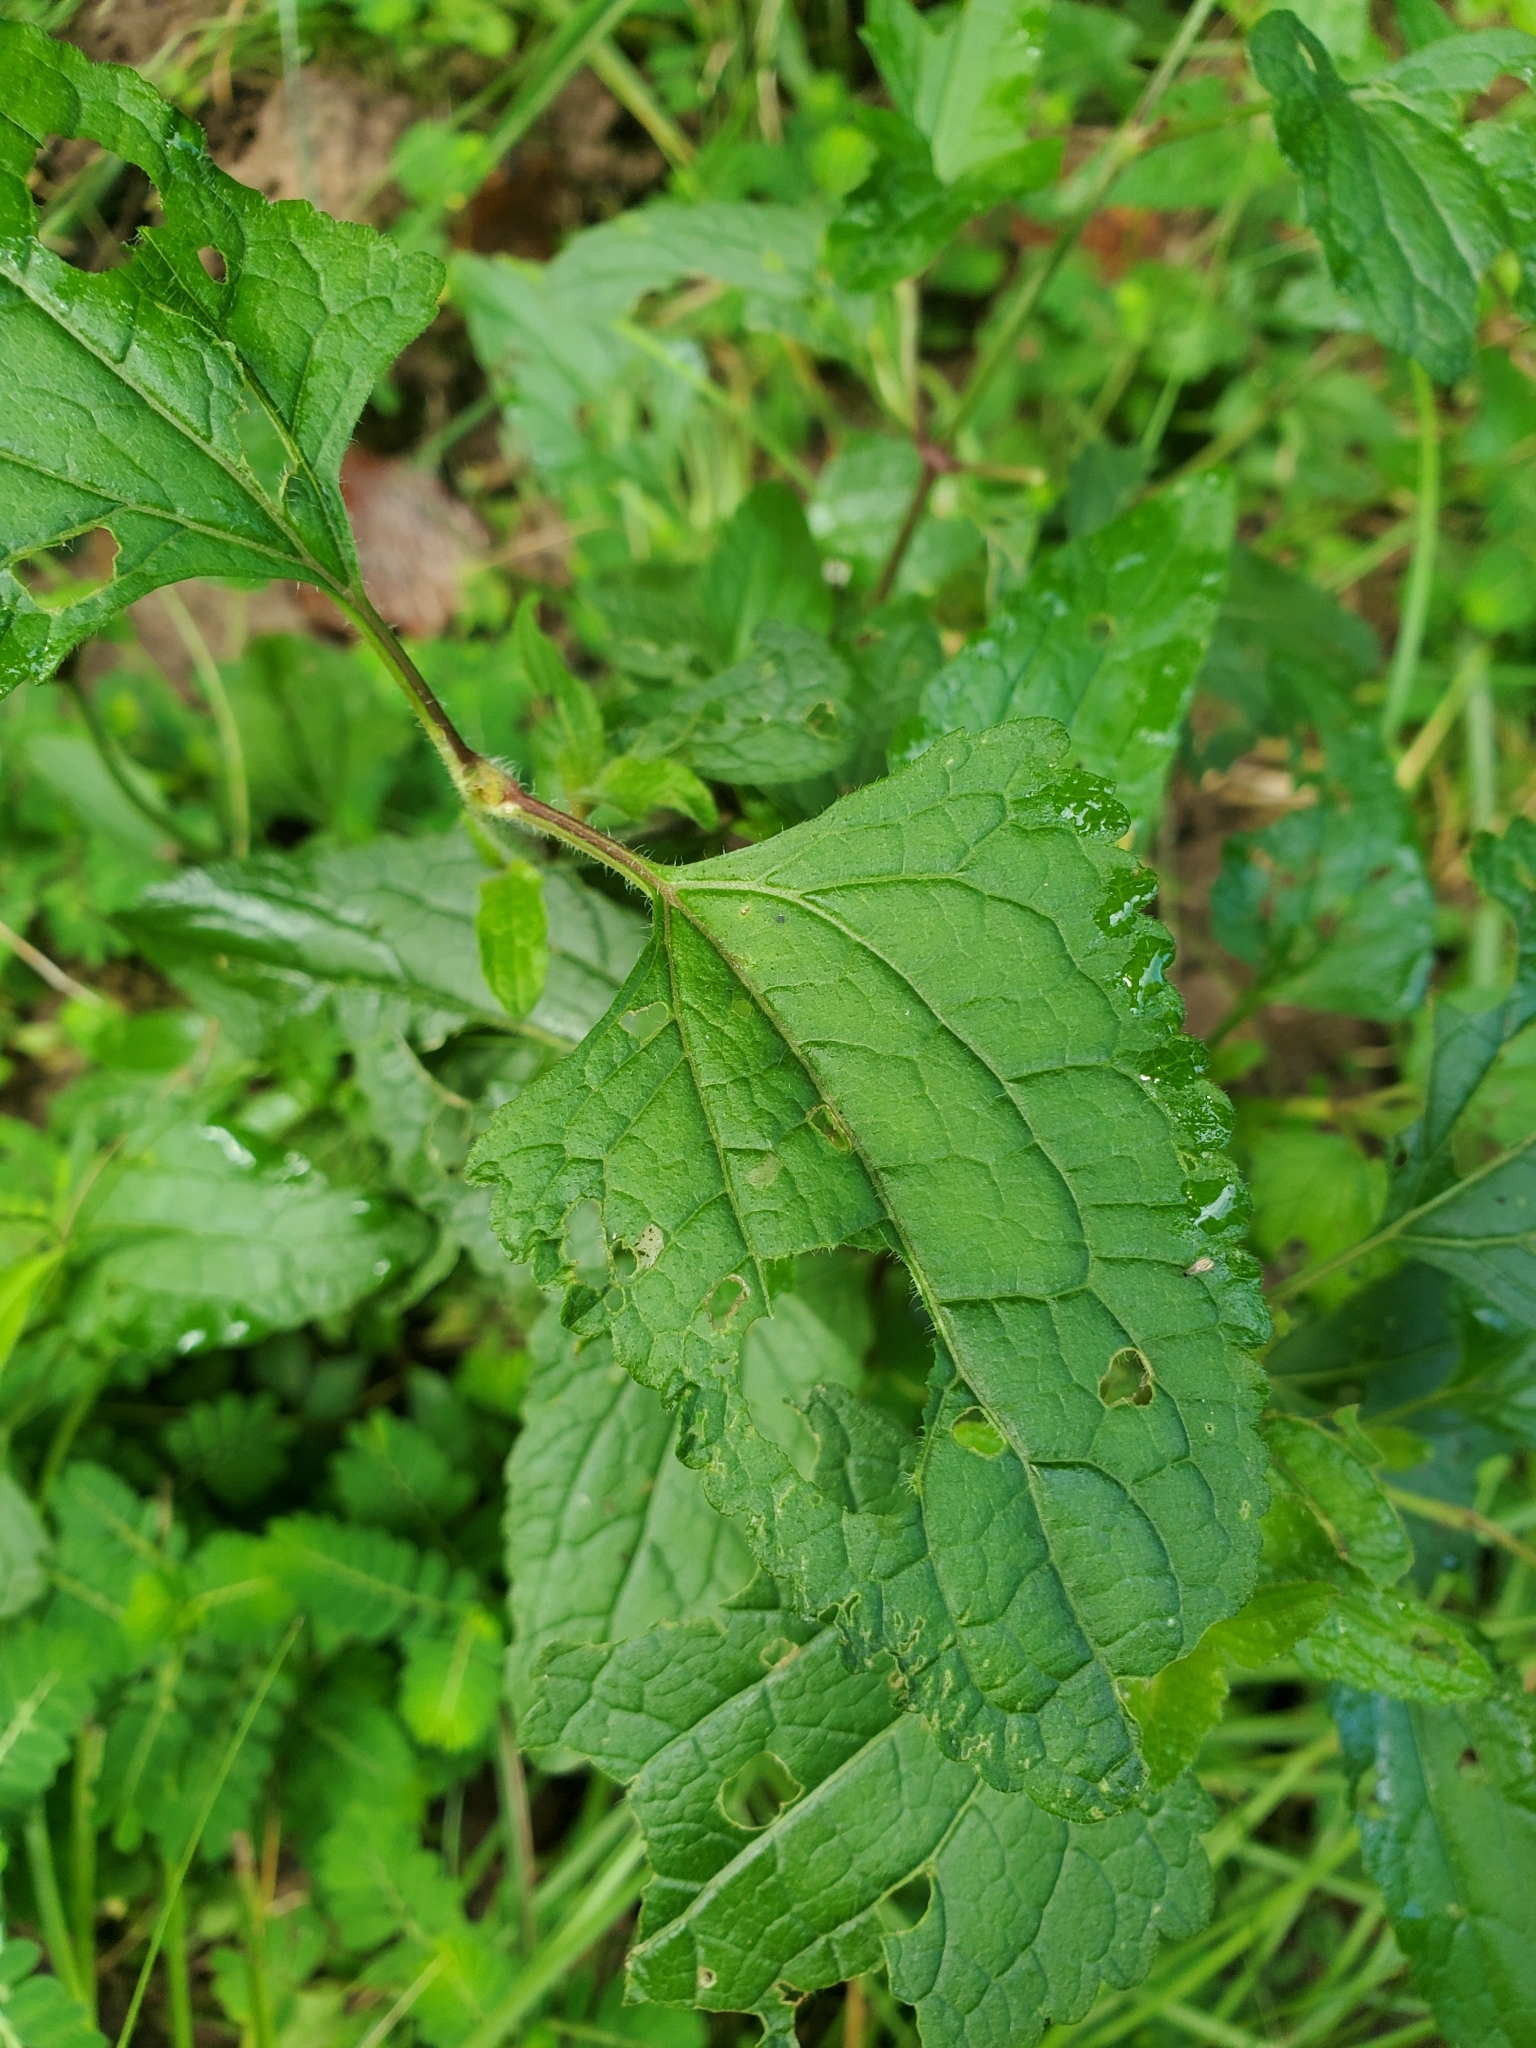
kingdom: Plantae
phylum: Tracheophyta
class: Magnoliopsida
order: Asterales
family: Asteraceae
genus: Conoclinium
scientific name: Conoclinium coelestinum
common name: Blue mistflower
